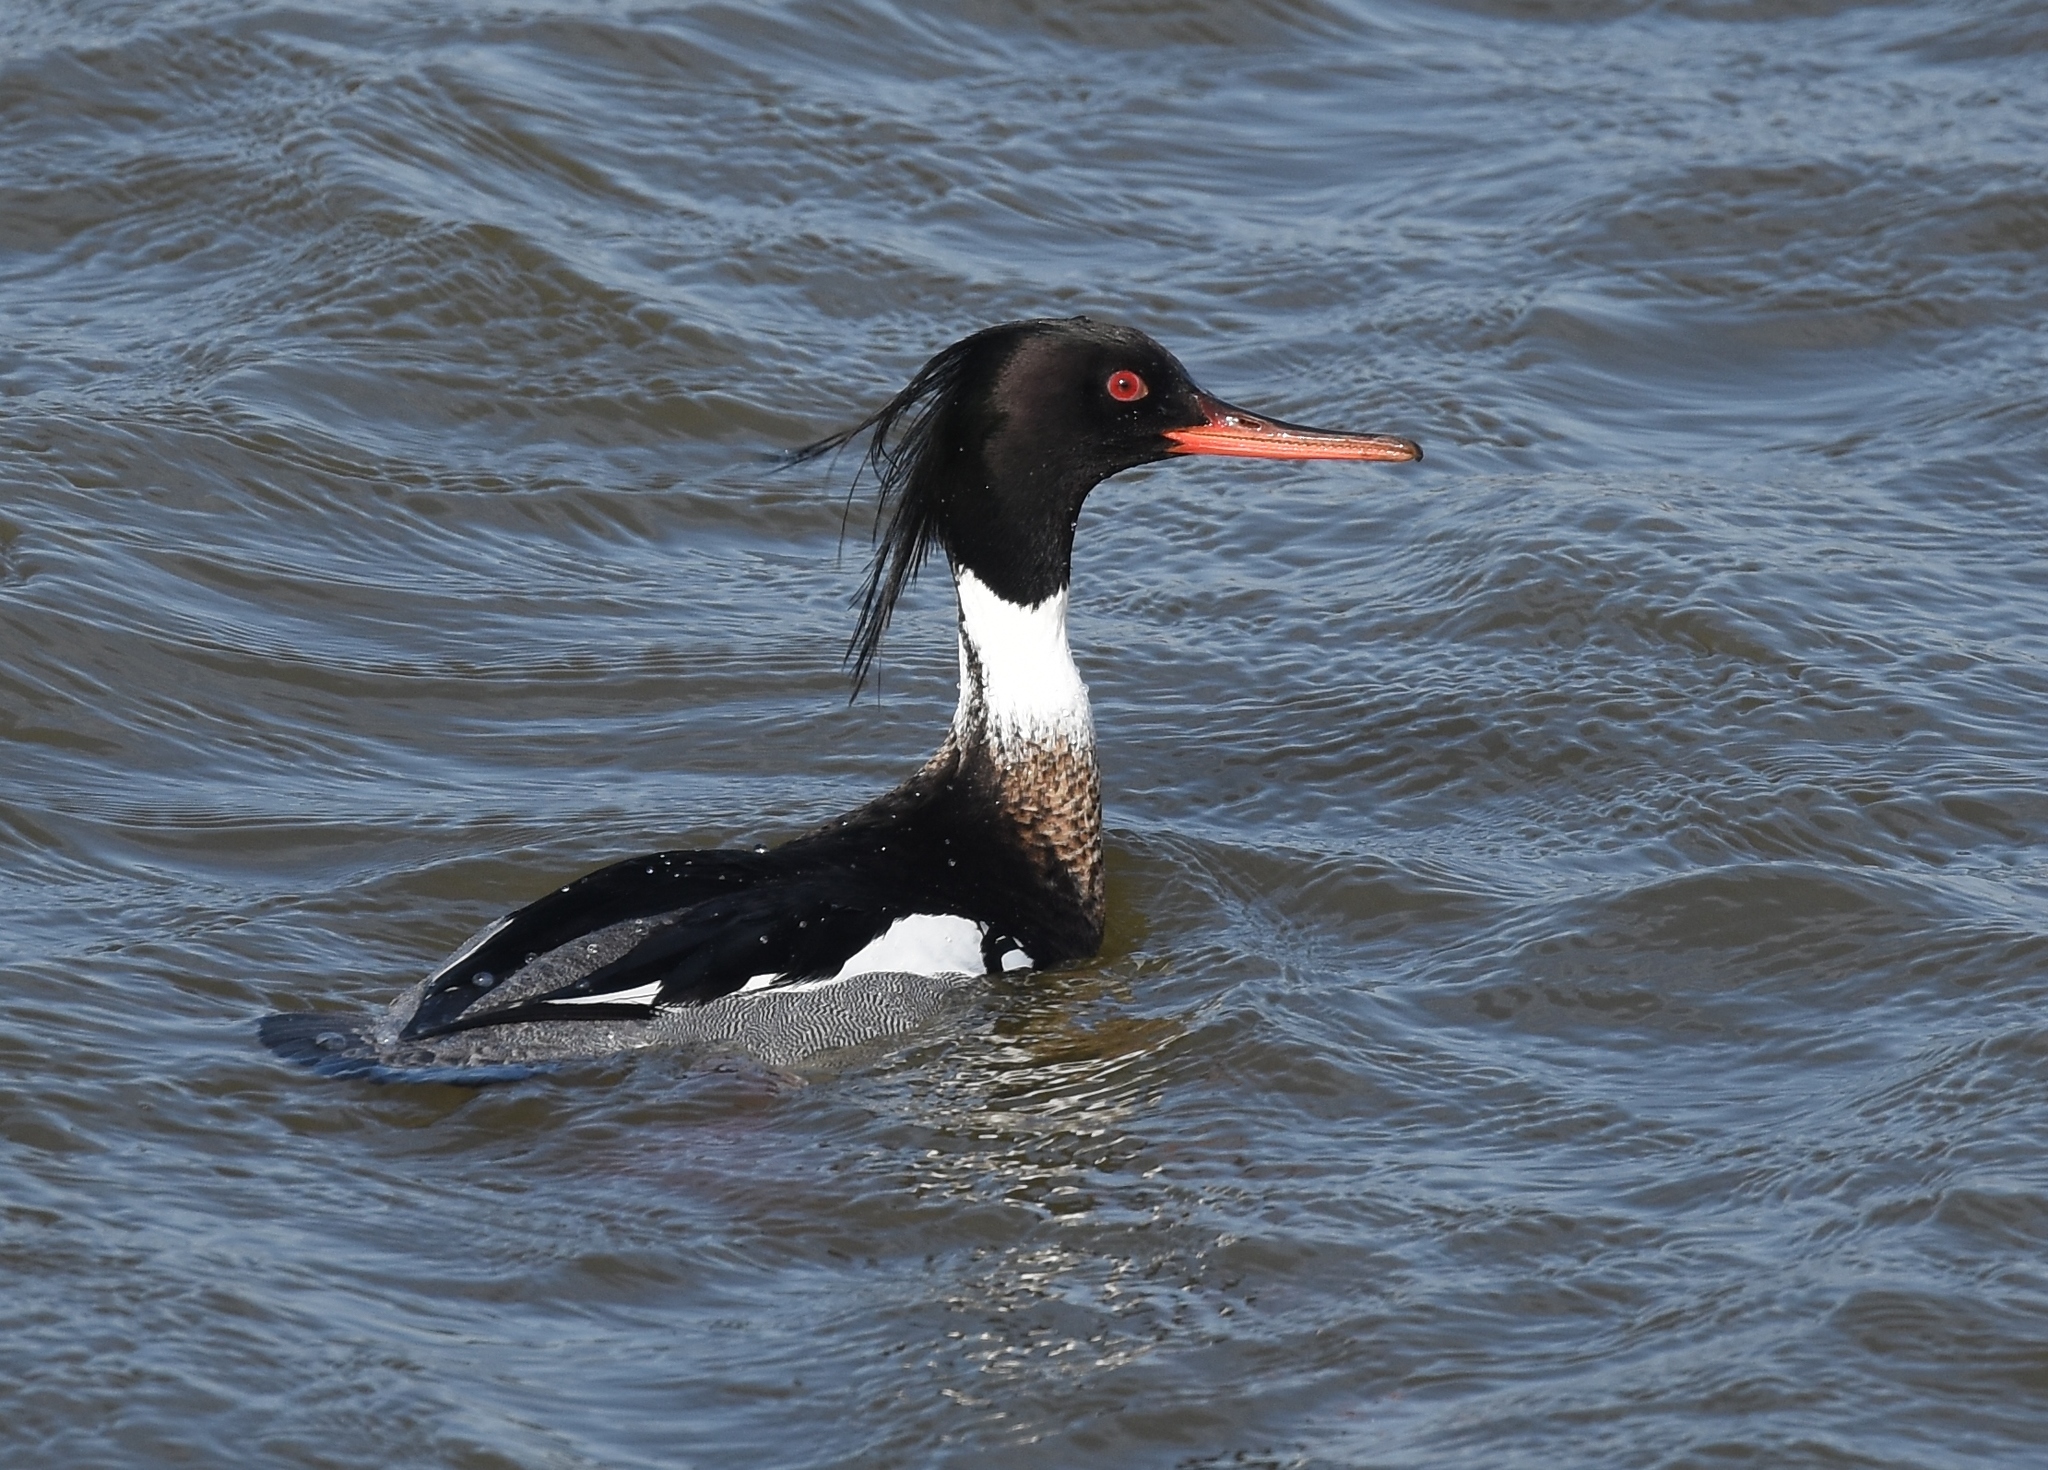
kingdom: Animalia
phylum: Chordata
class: Aves
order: Anseriformes
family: Anatidae
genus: Mergus
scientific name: Mergus serrator
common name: Red-breasted merganser
